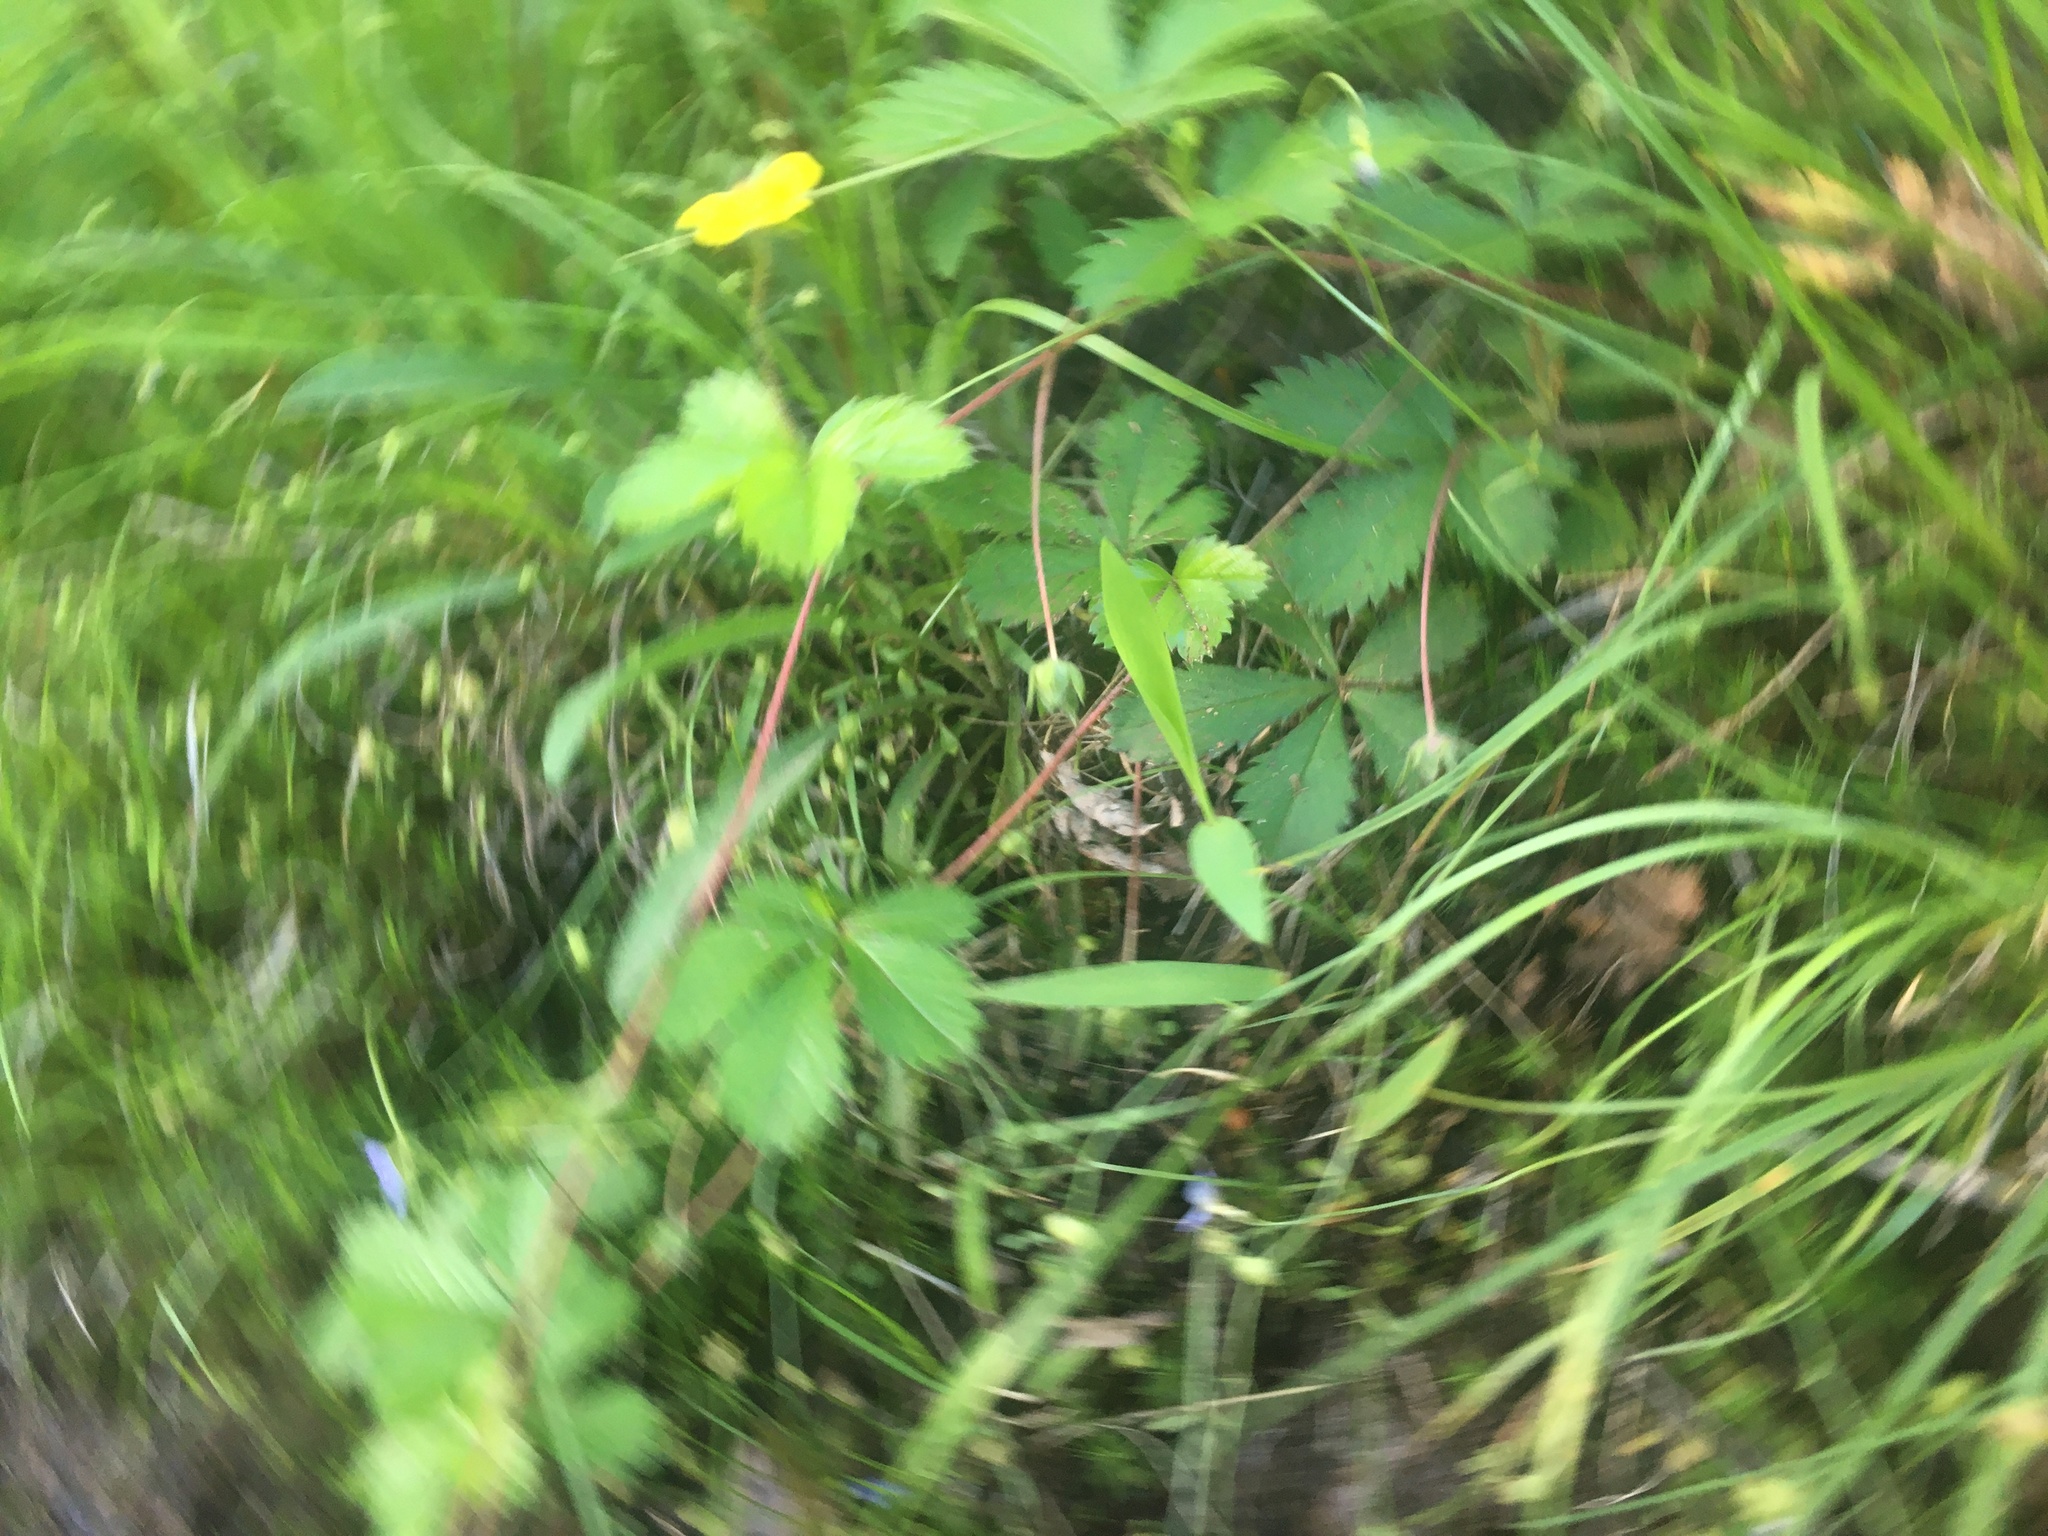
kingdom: Plantae
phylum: Tracheophyta
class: Magnoliopsida
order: Rosales
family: Rosaceae
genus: Potentilla
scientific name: Potentilla simplex
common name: Old field cinquefoil
